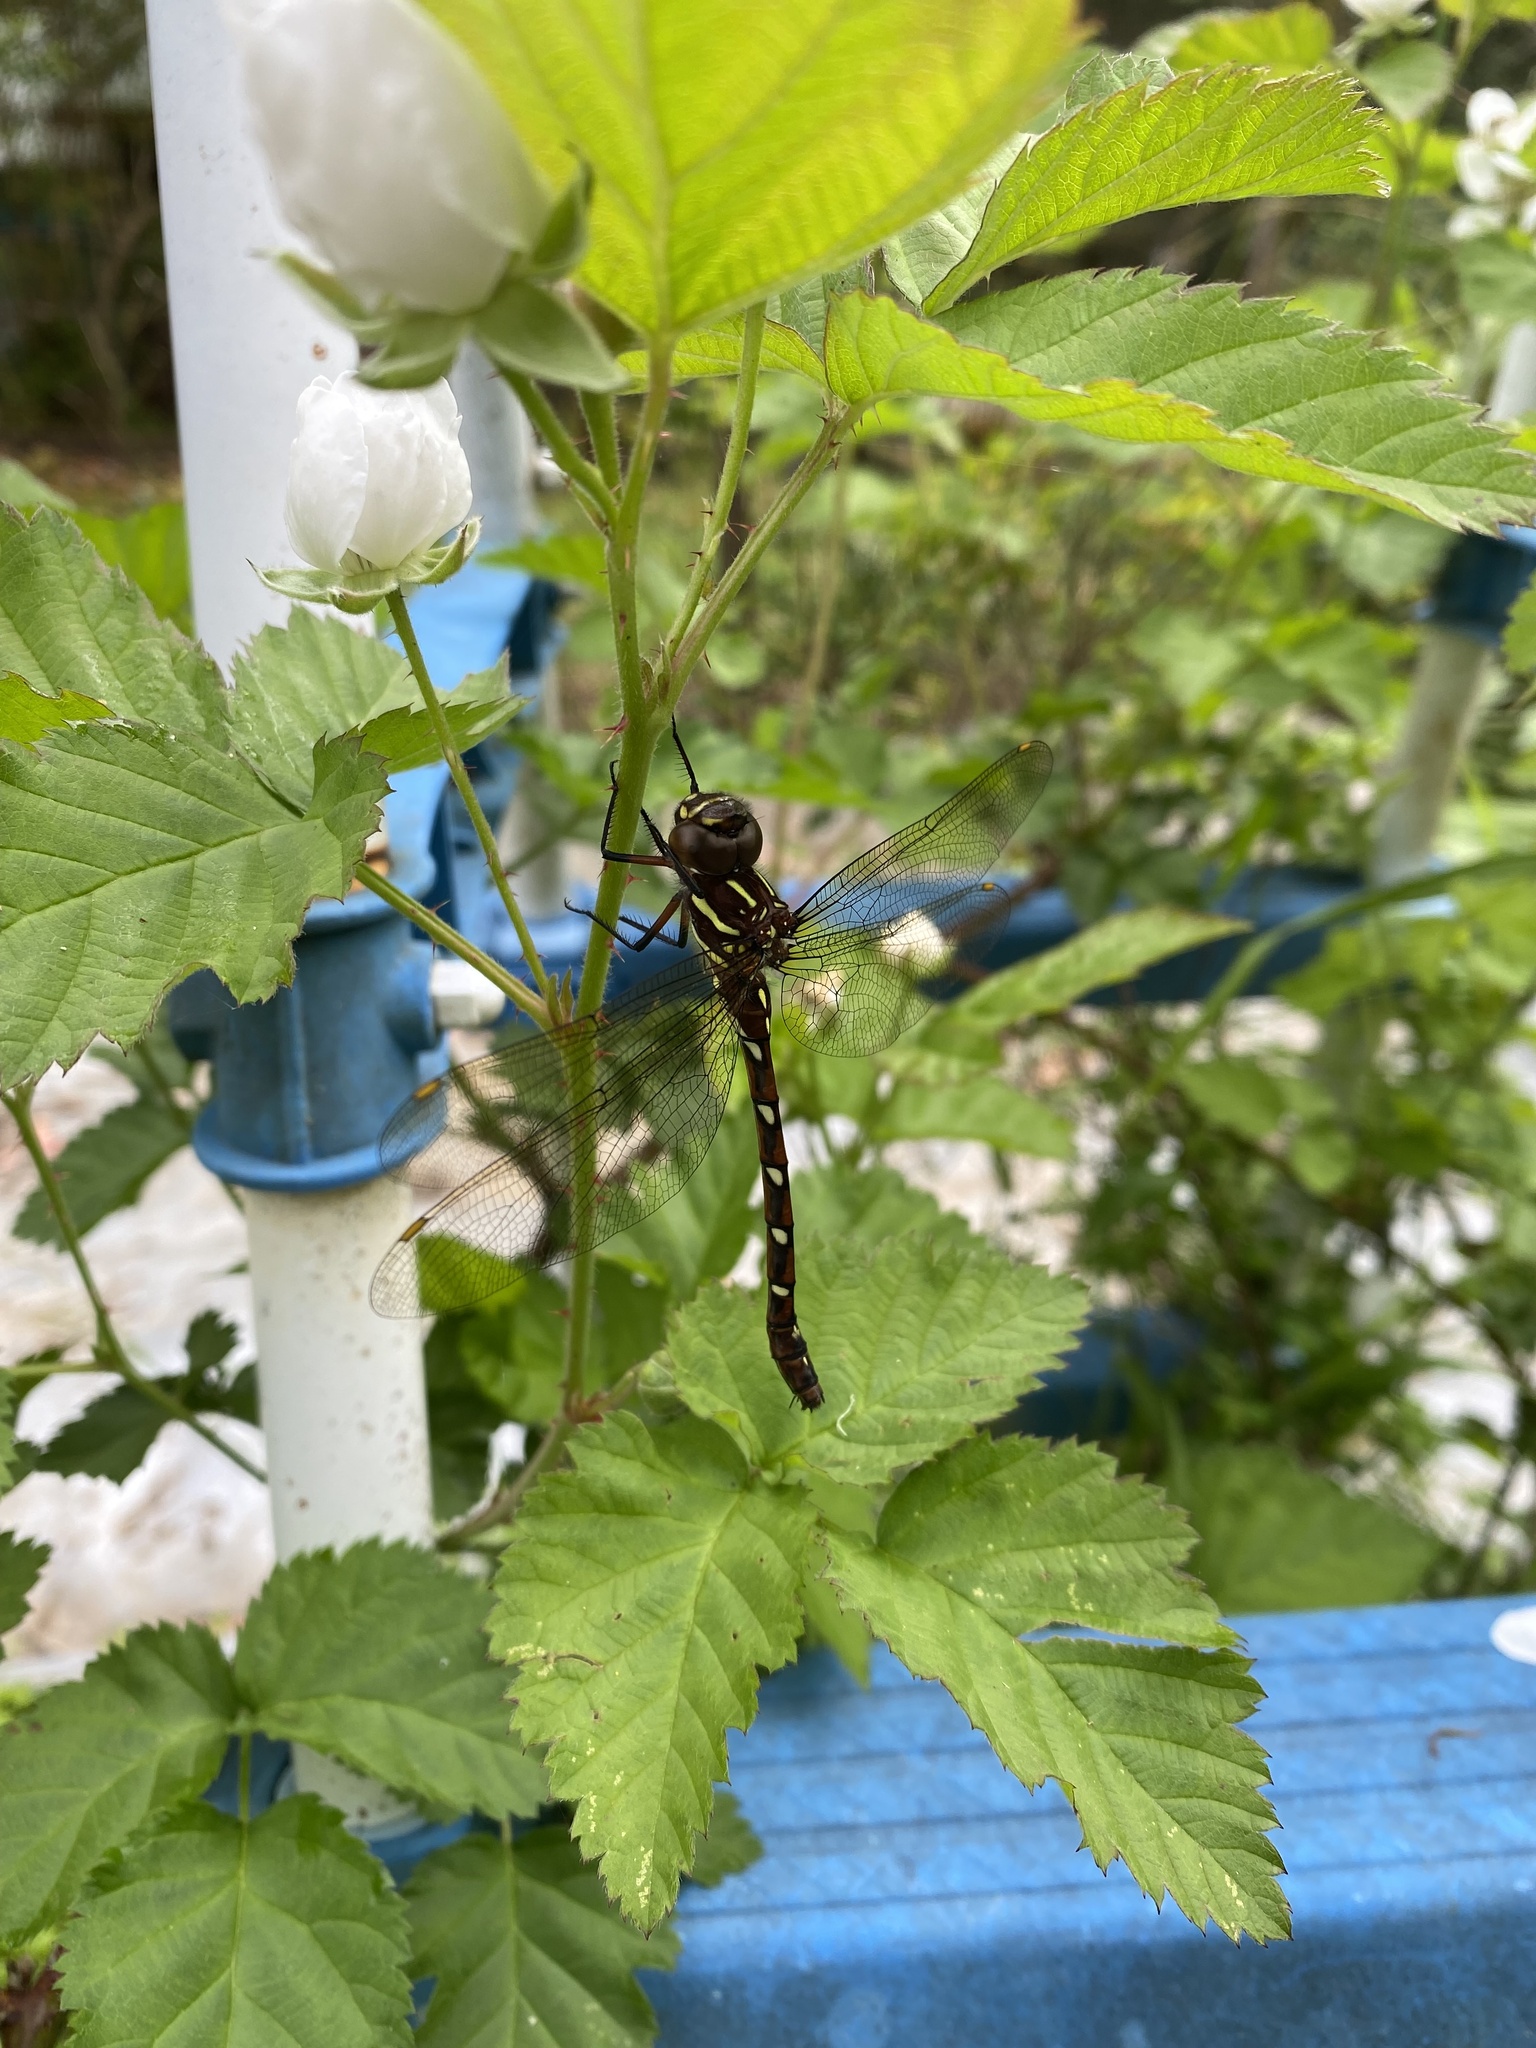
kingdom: Animalia
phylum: Arthropoda
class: Insecta
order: Odonata
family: Aeshnidae
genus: Austroaeschna
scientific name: Austroaeschna pulchra
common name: Forest darner
